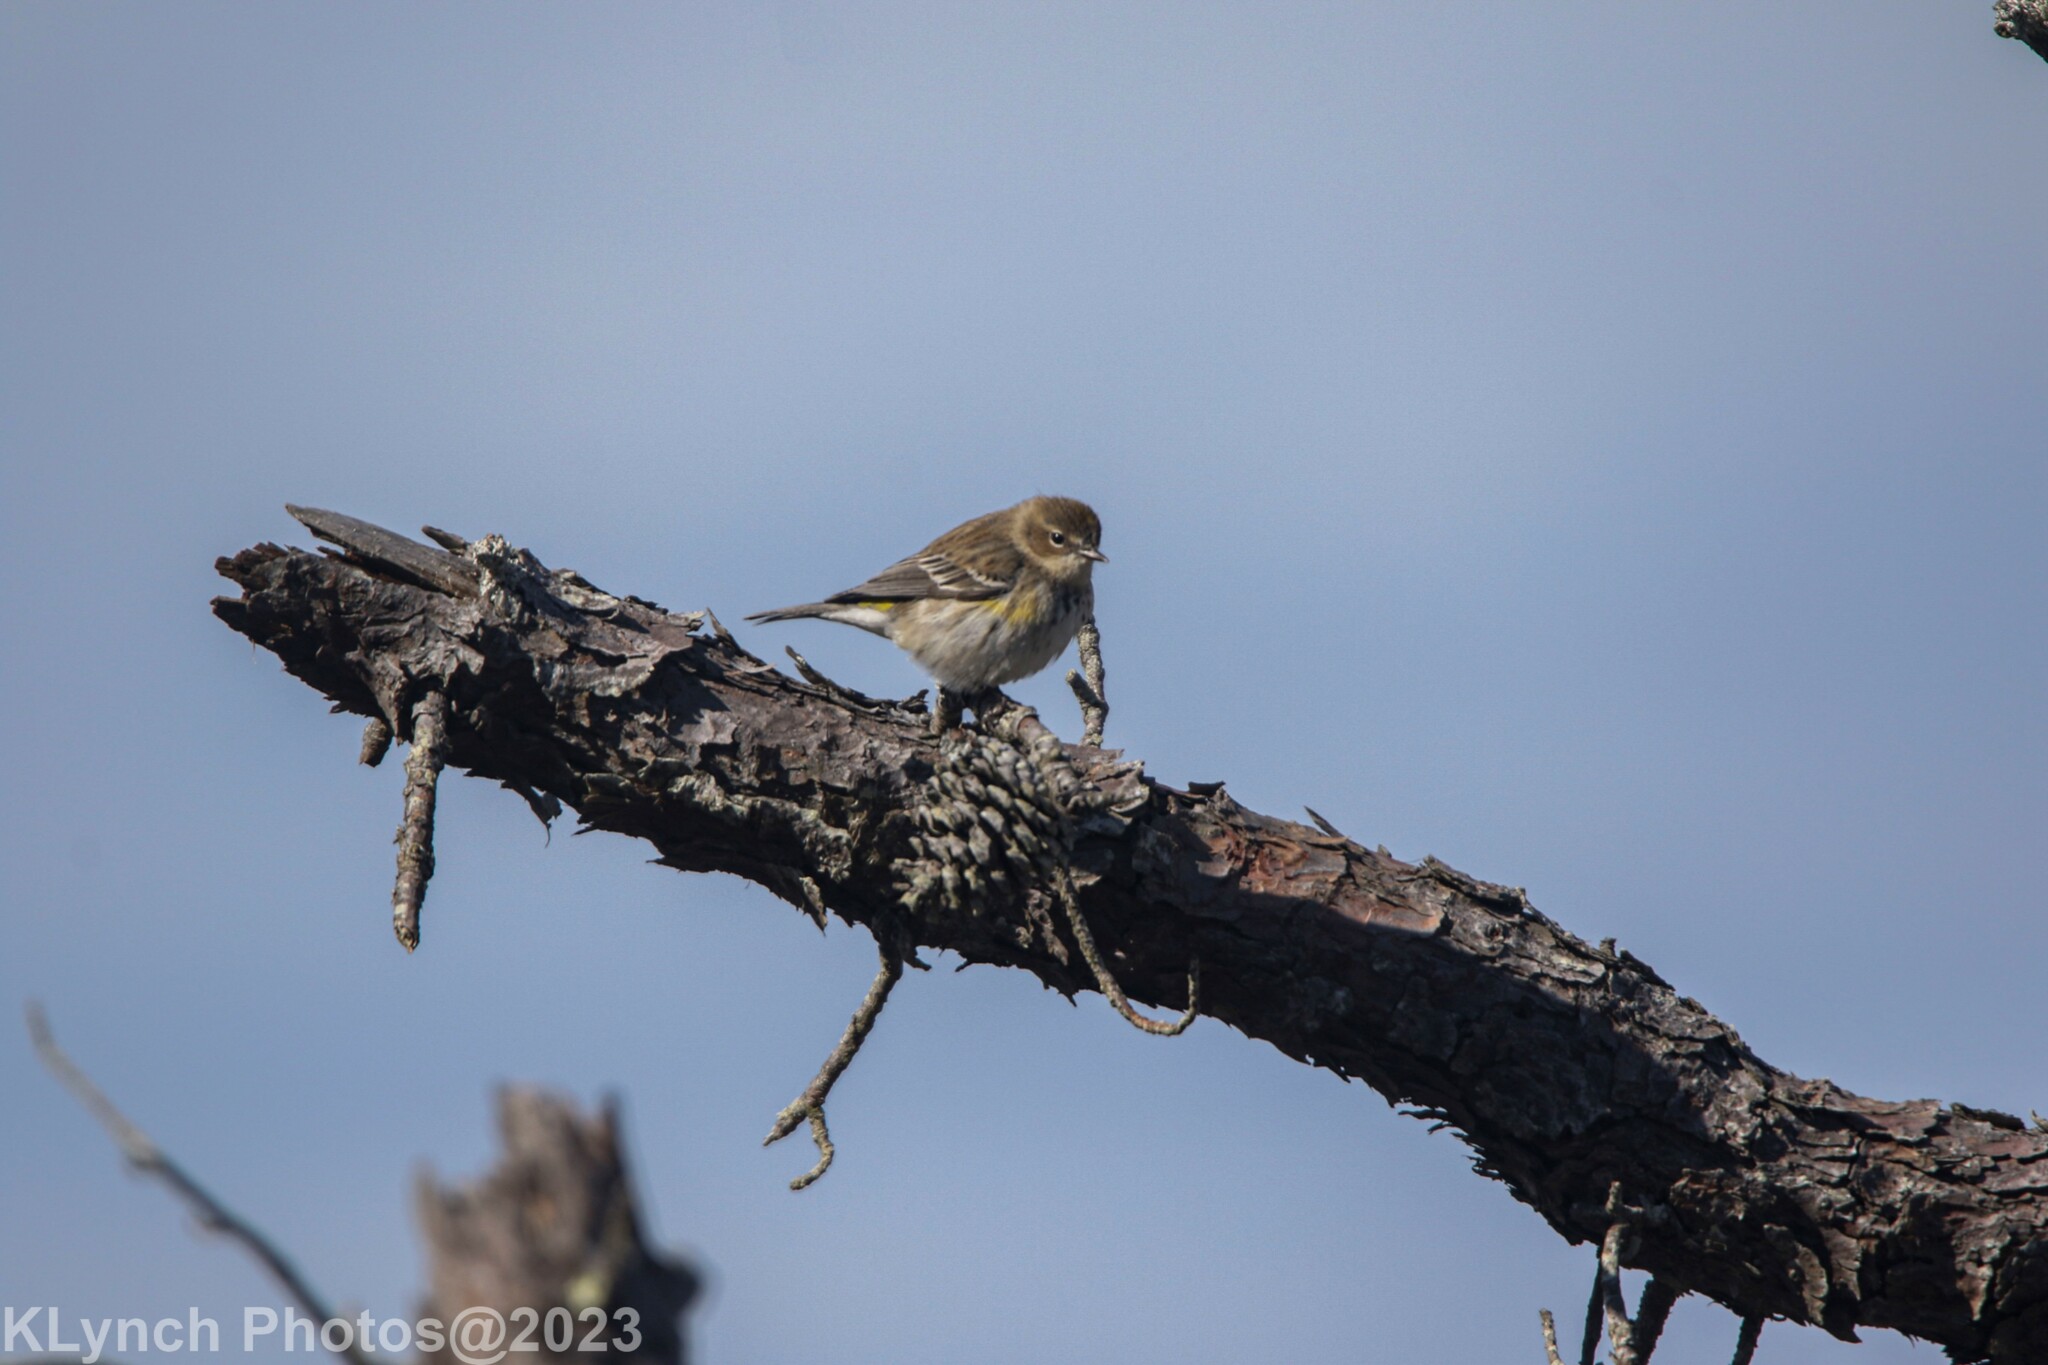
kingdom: Animalia
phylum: Chordata
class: Aves
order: Passeriformes
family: Parulidae
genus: Setophaga
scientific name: Setophaga coronata
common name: Myrtle warbler
